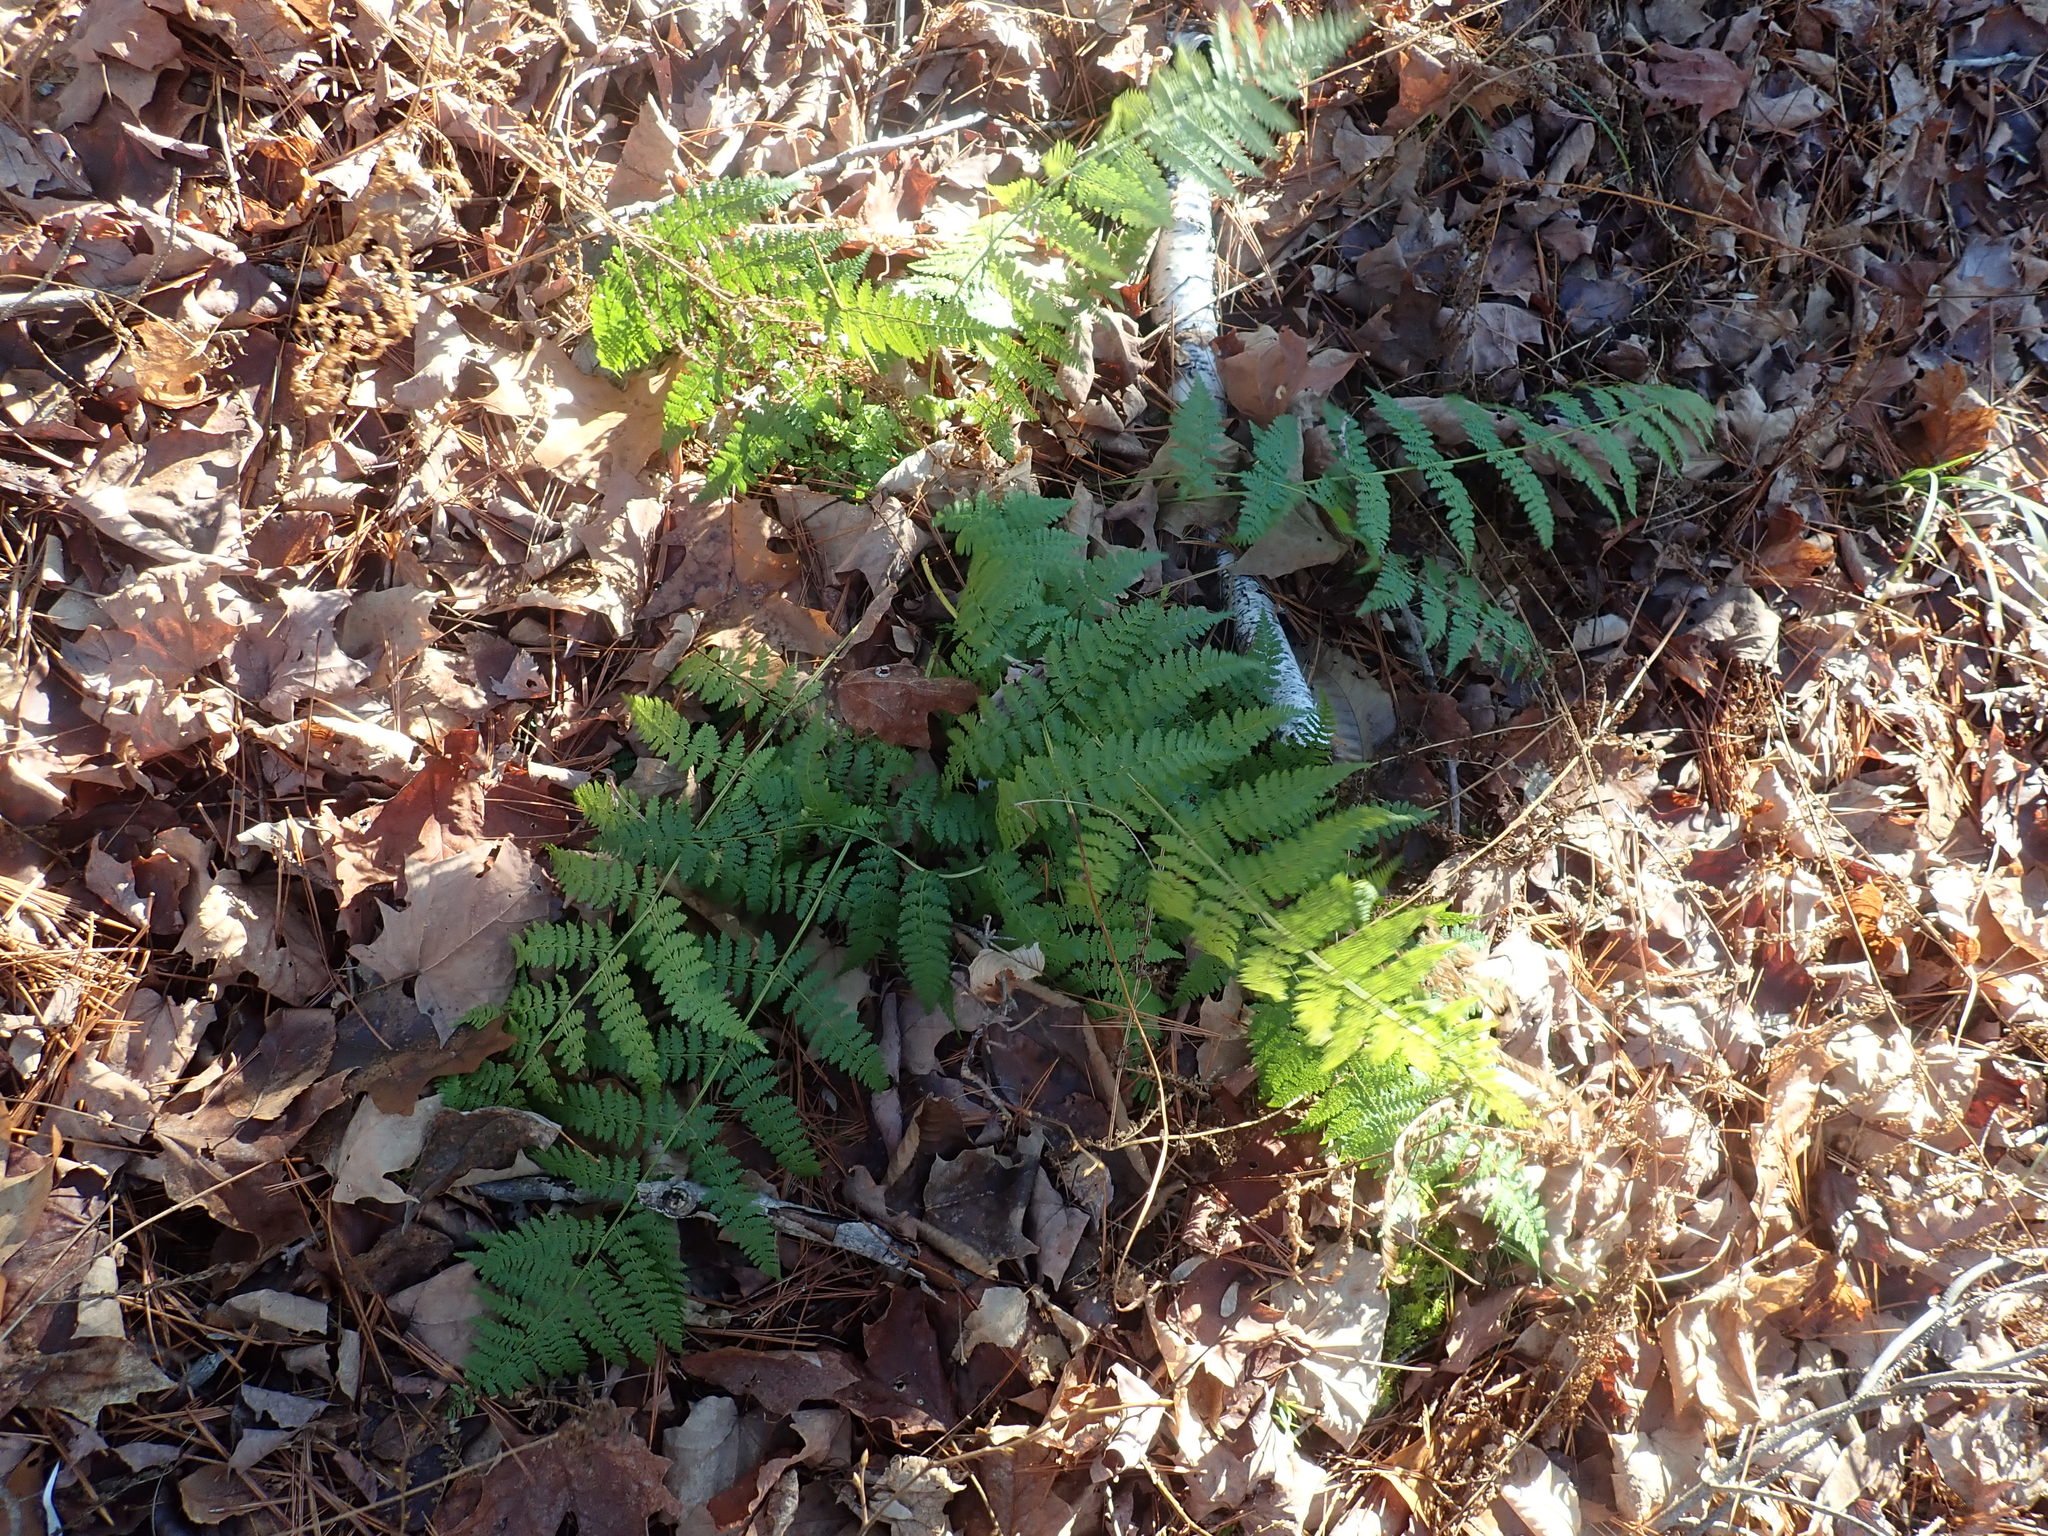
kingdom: Plantae
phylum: Tracheophyta
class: Polypodiopsida
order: Polypodiales
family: Dryopteridaceae
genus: Dryopteris
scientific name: Dryopteris intermedia
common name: Evergreen wood fern
